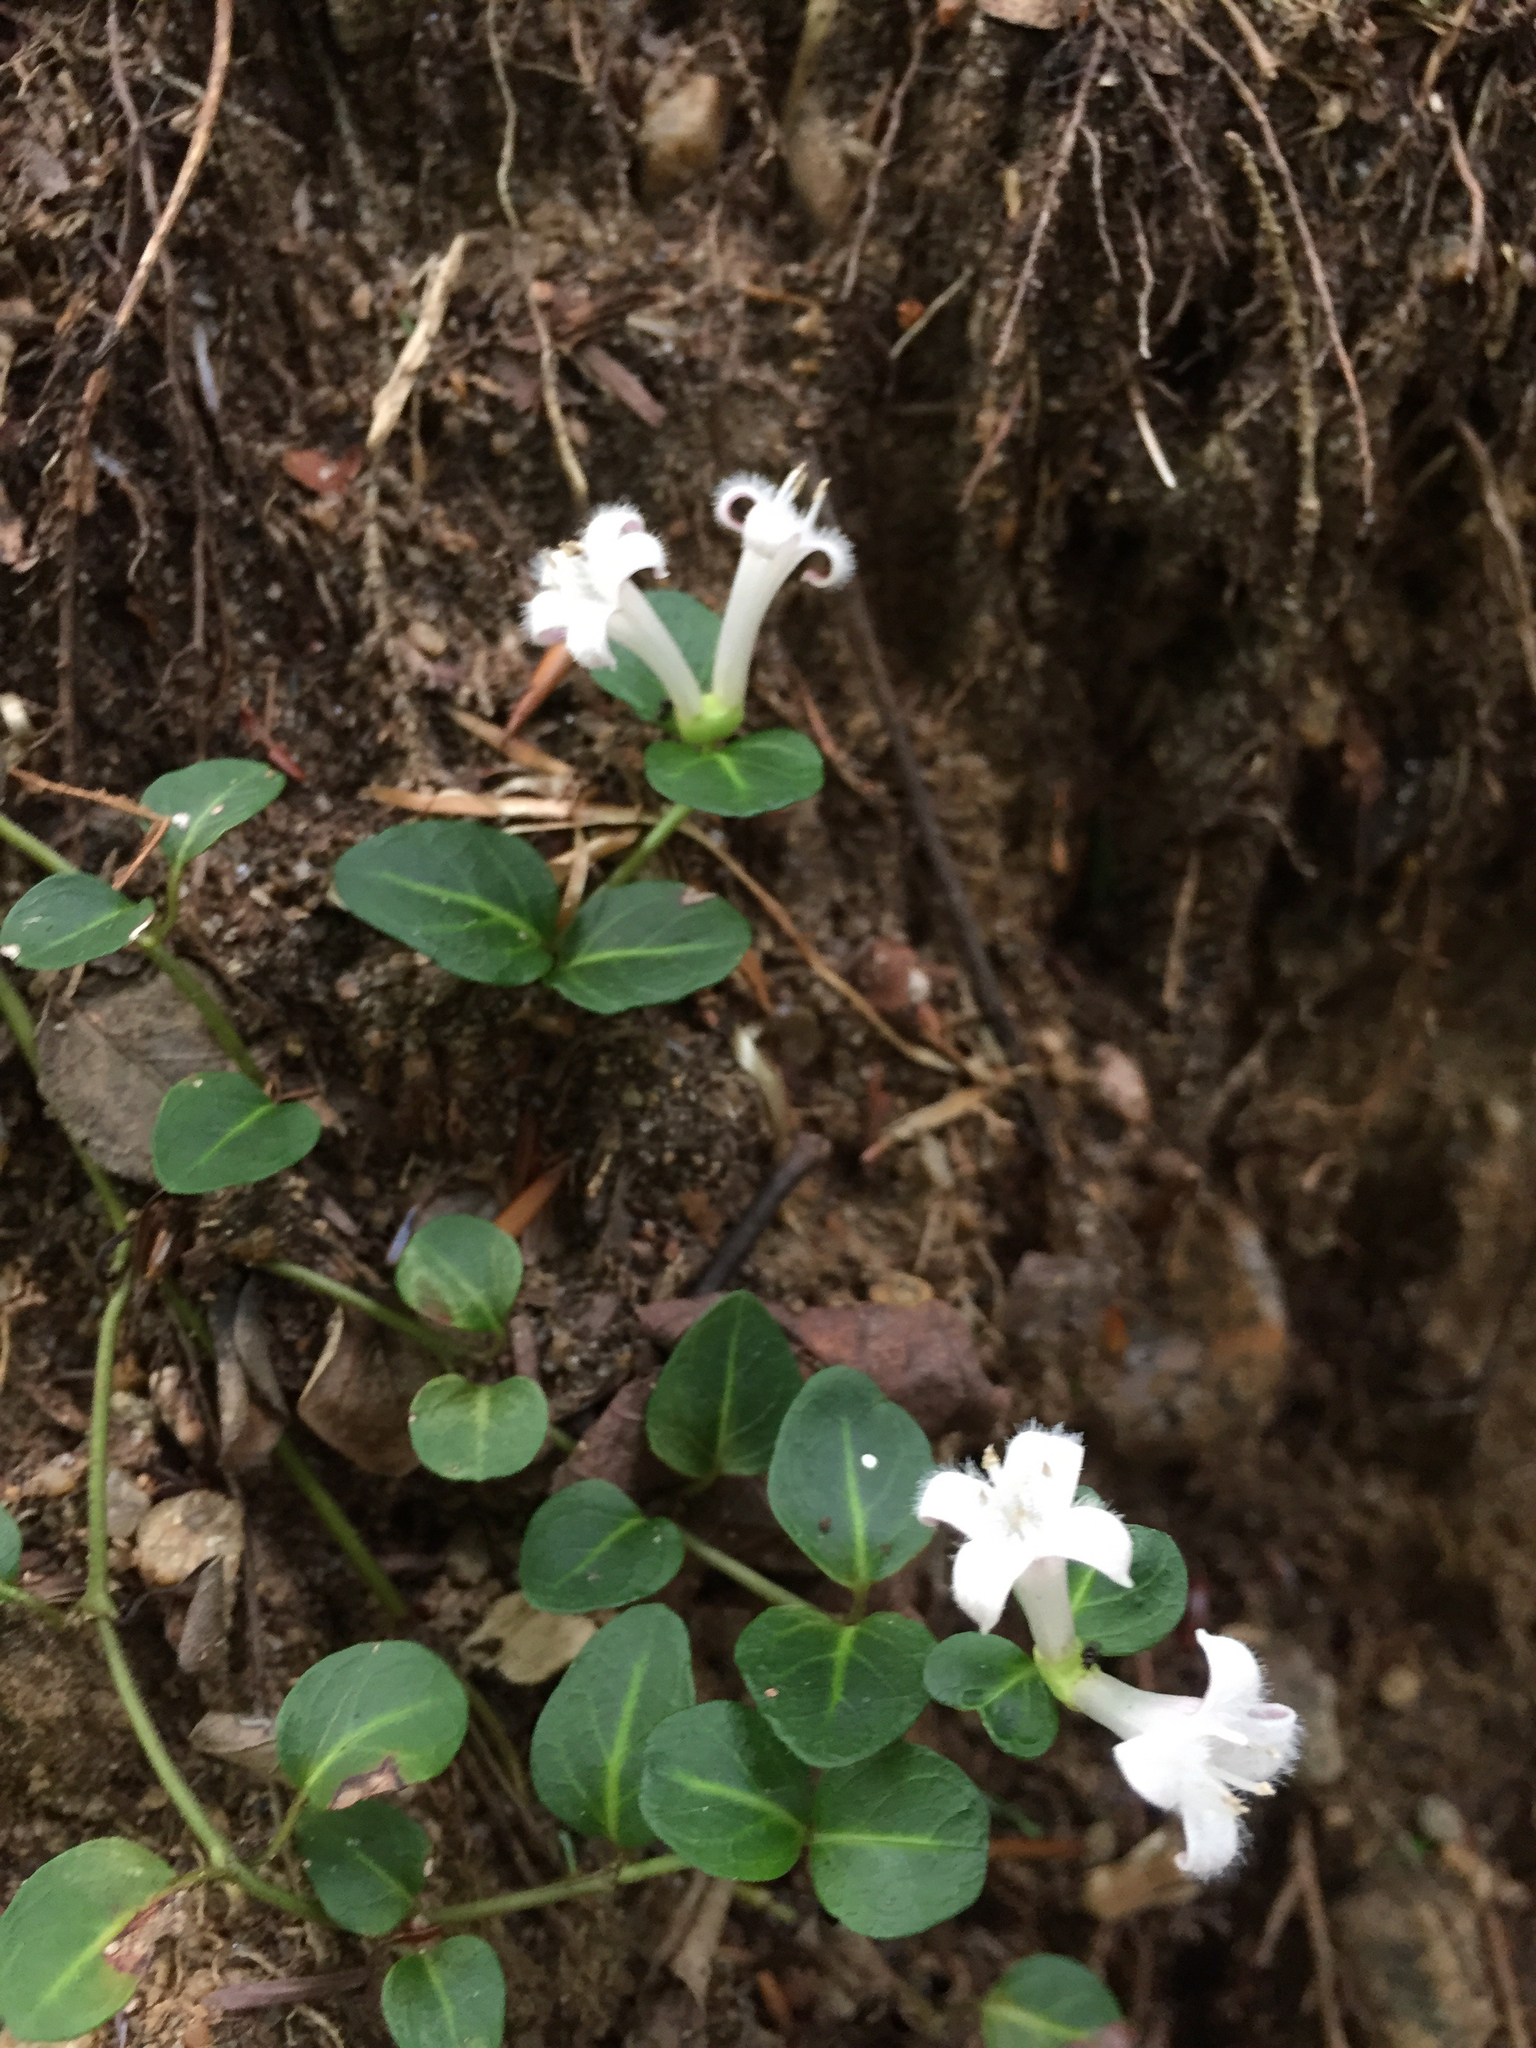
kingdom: Plantae
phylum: Tracheophyta
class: Magnoliopsida
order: Gentianales
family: Rubiaceae
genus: Mitchella
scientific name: Mitchella repens
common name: Partridge-berry
